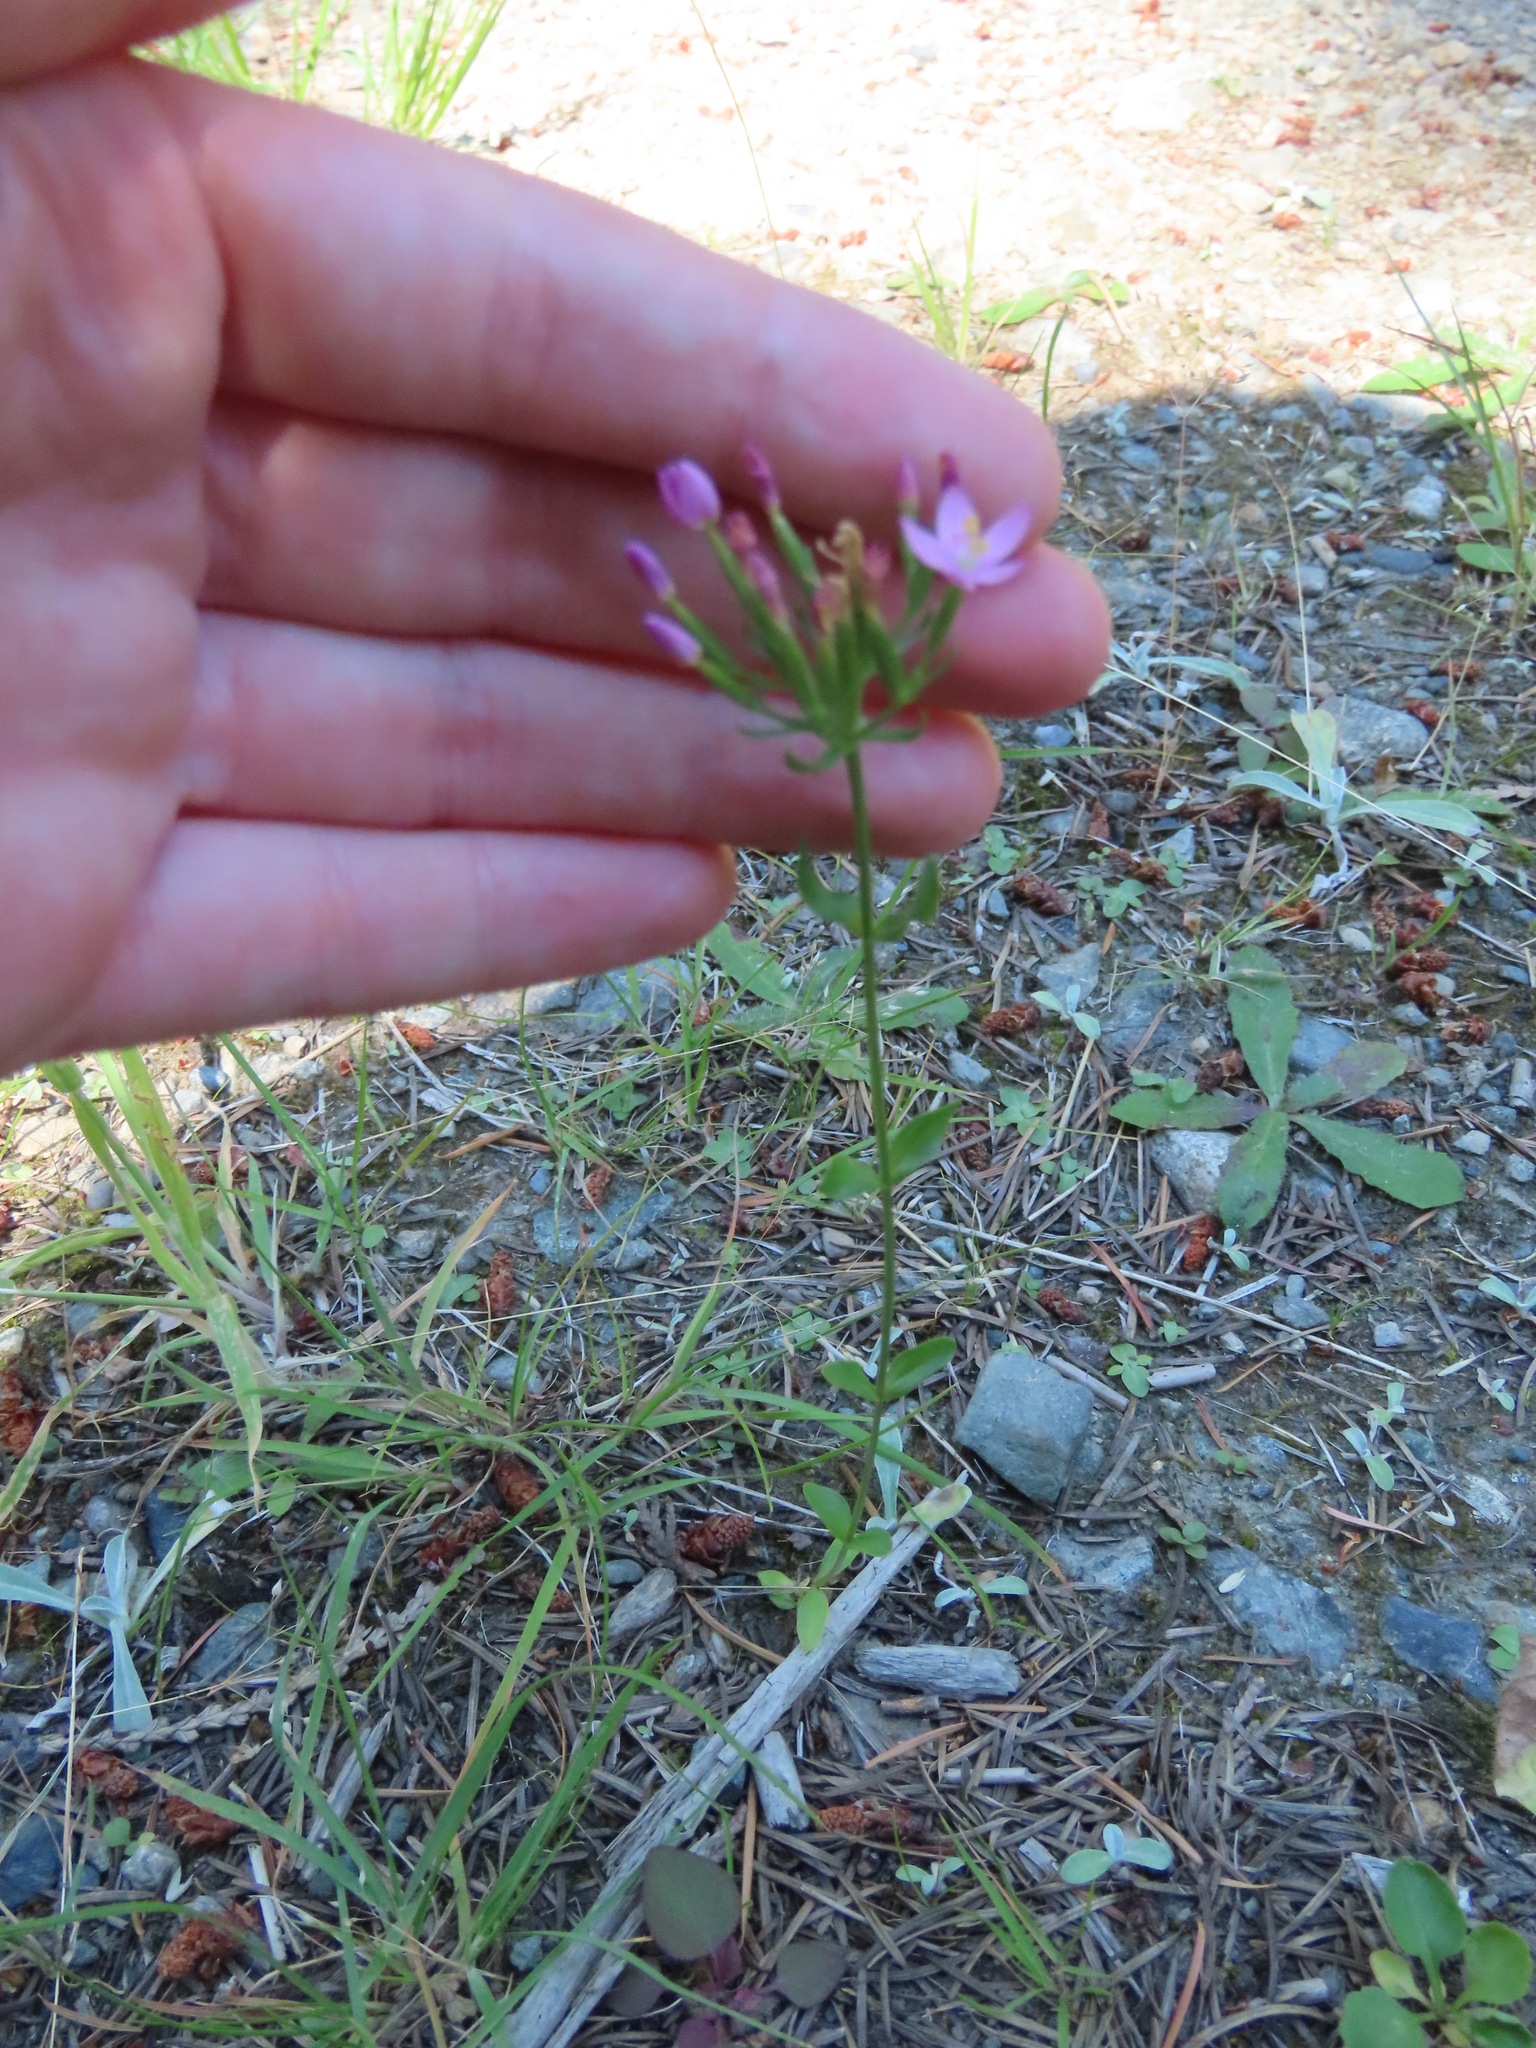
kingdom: Plantae
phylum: Tracheophyta
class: Magnoliopsida
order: Gentianales
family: Gentianaceae
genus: Centaurium
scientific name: Centaurium erythraea
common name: Common centaury
